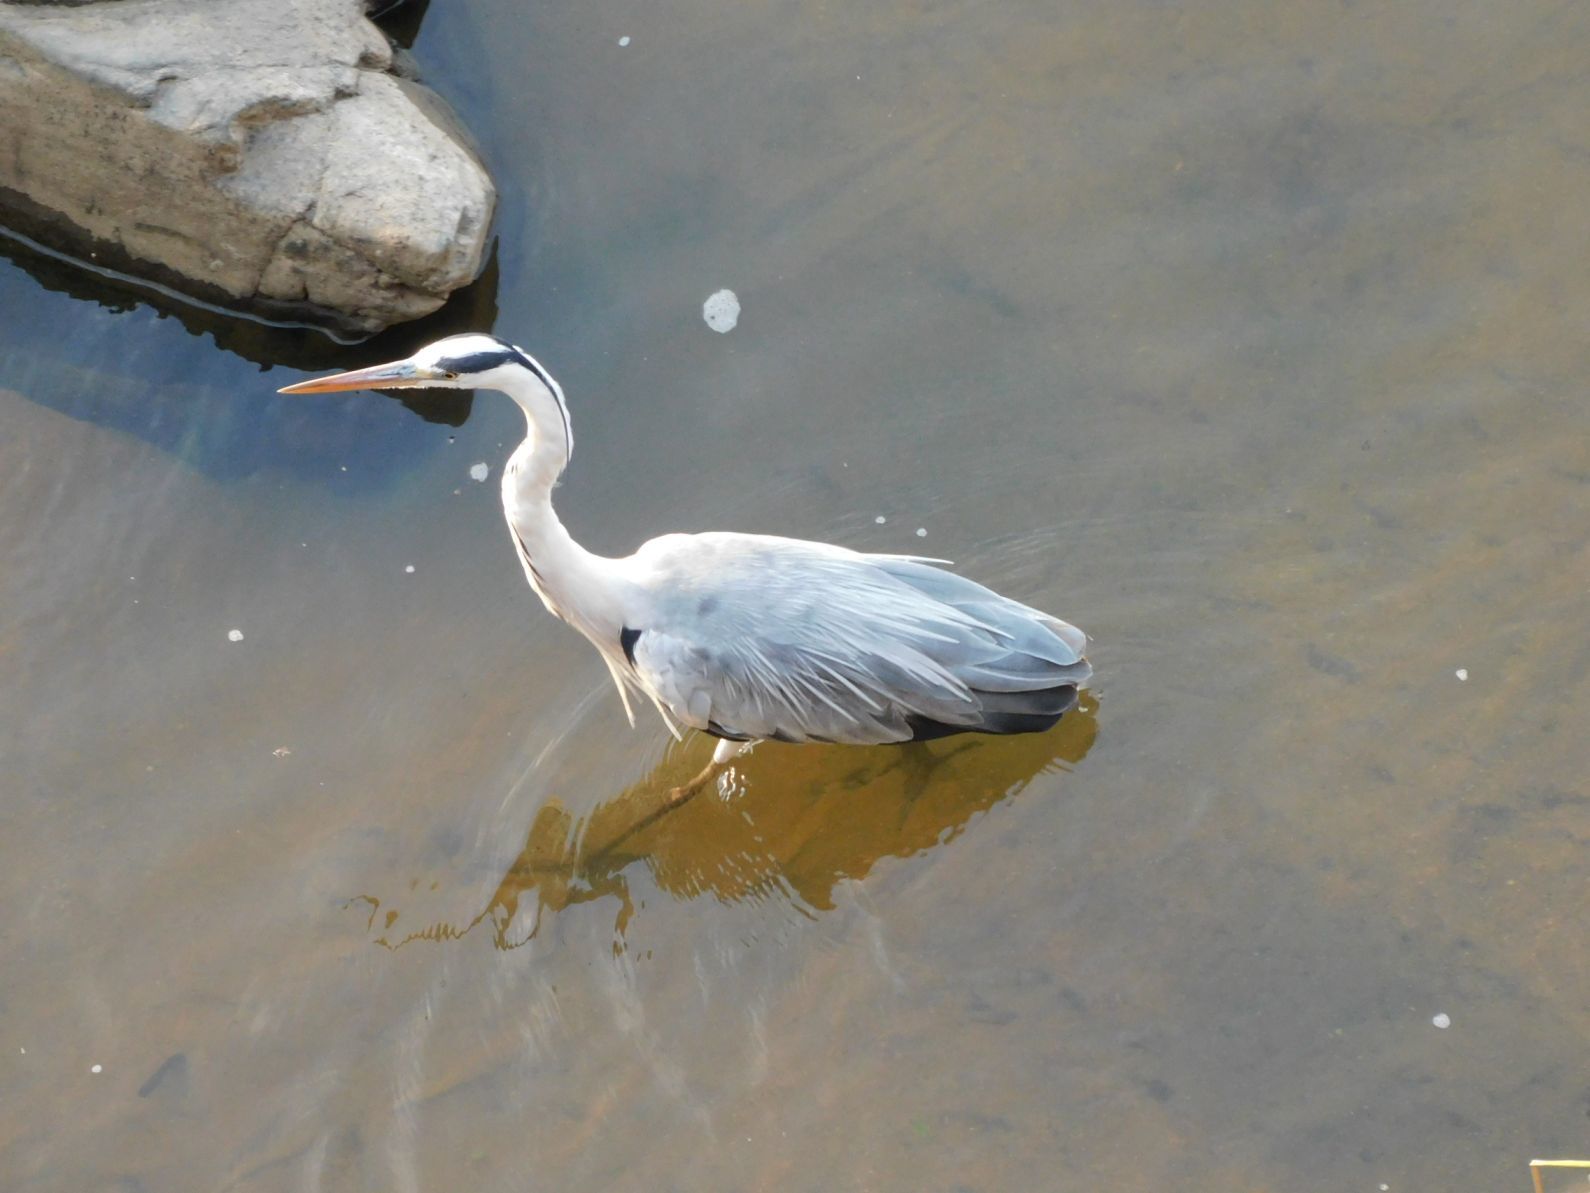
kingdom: Animalia
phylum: Chordata
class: Aves
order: Pelecaniformes
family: Ardeidae
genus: Ardea
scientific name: Ardea cinerea
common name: Grey heron
